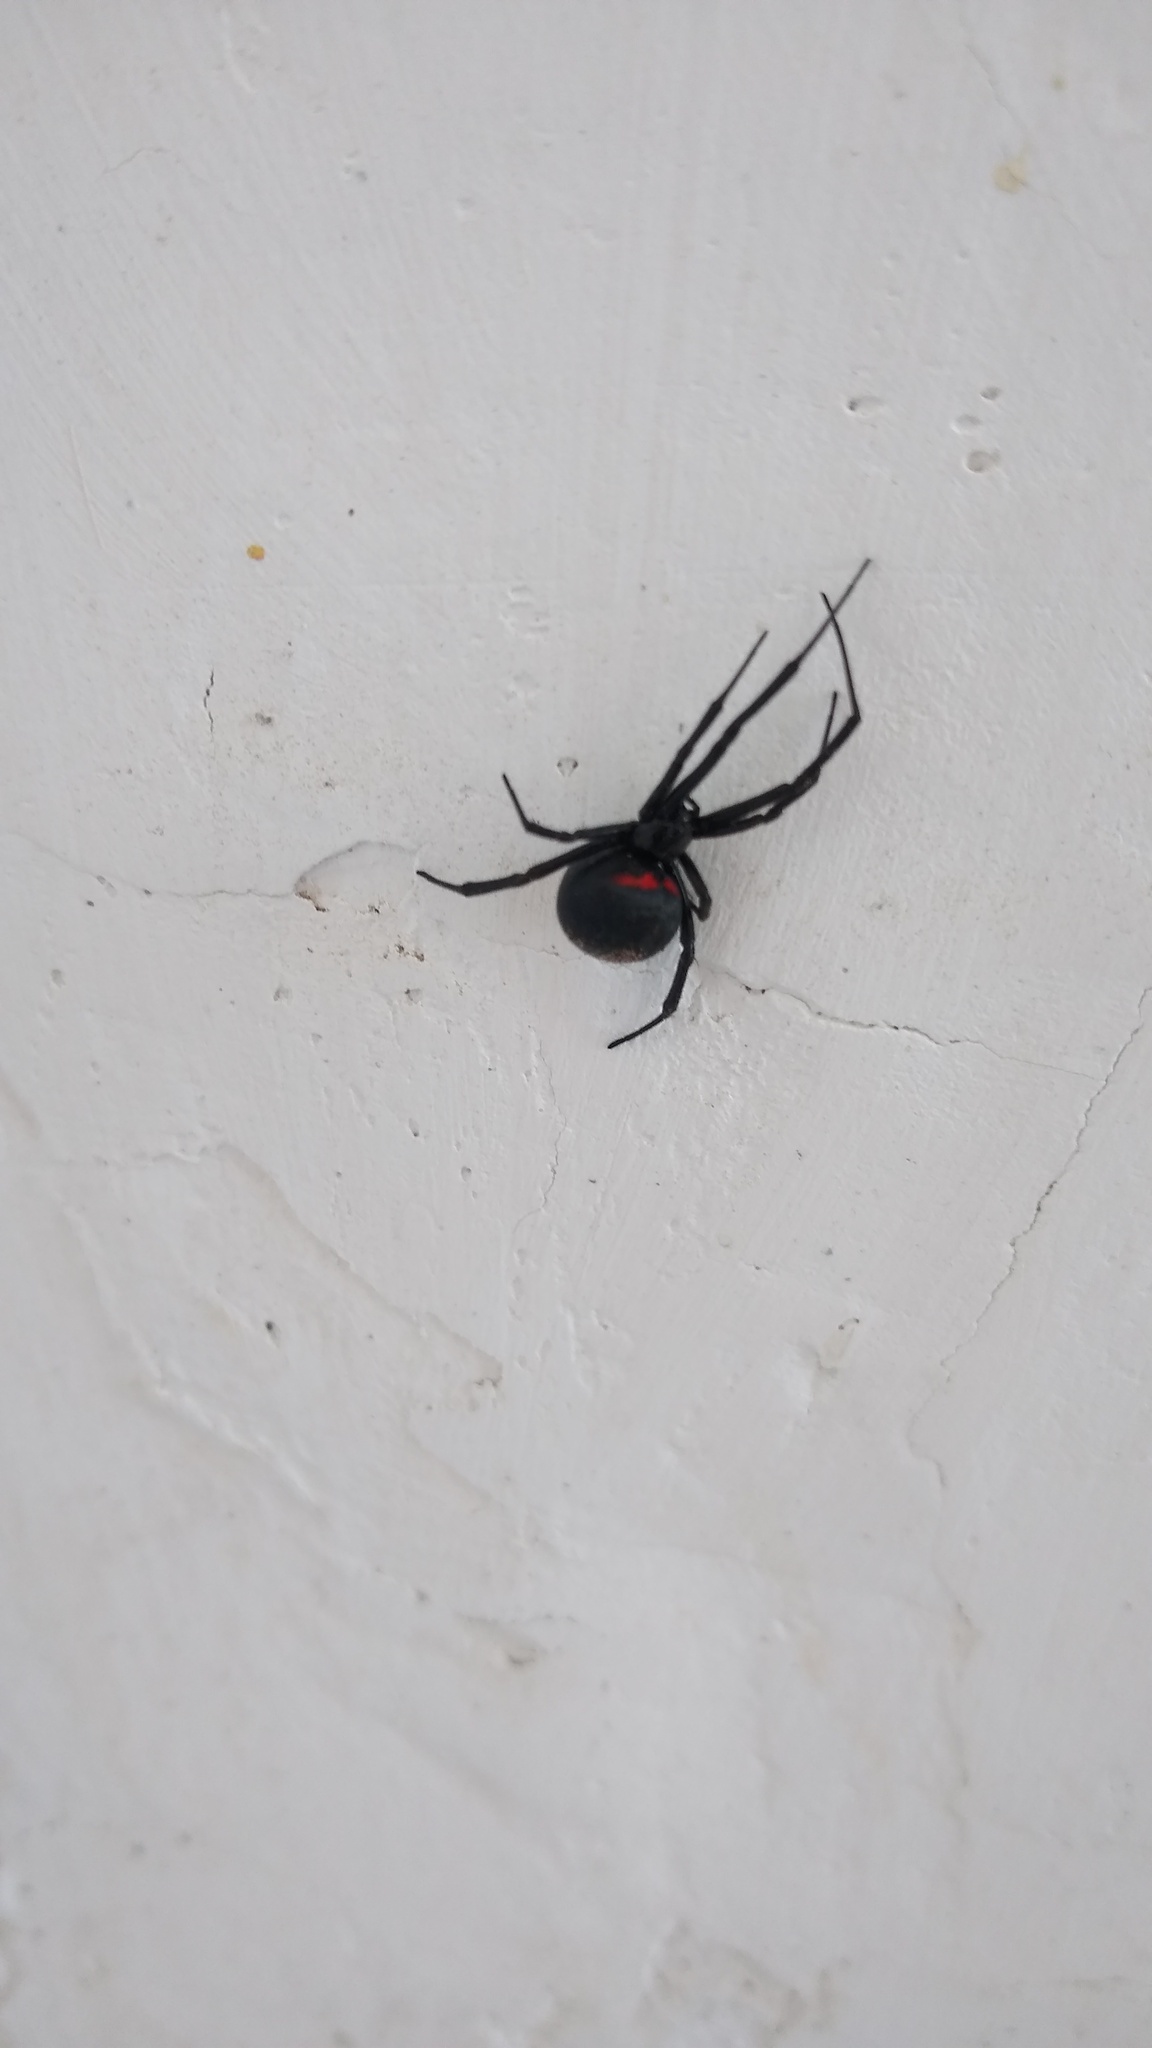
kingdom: Animalia
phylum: Arthropoda
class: Arachnida
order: Araneae
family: Theridiidae
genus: Latrodectus
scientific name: Latrodectus mirabilis
